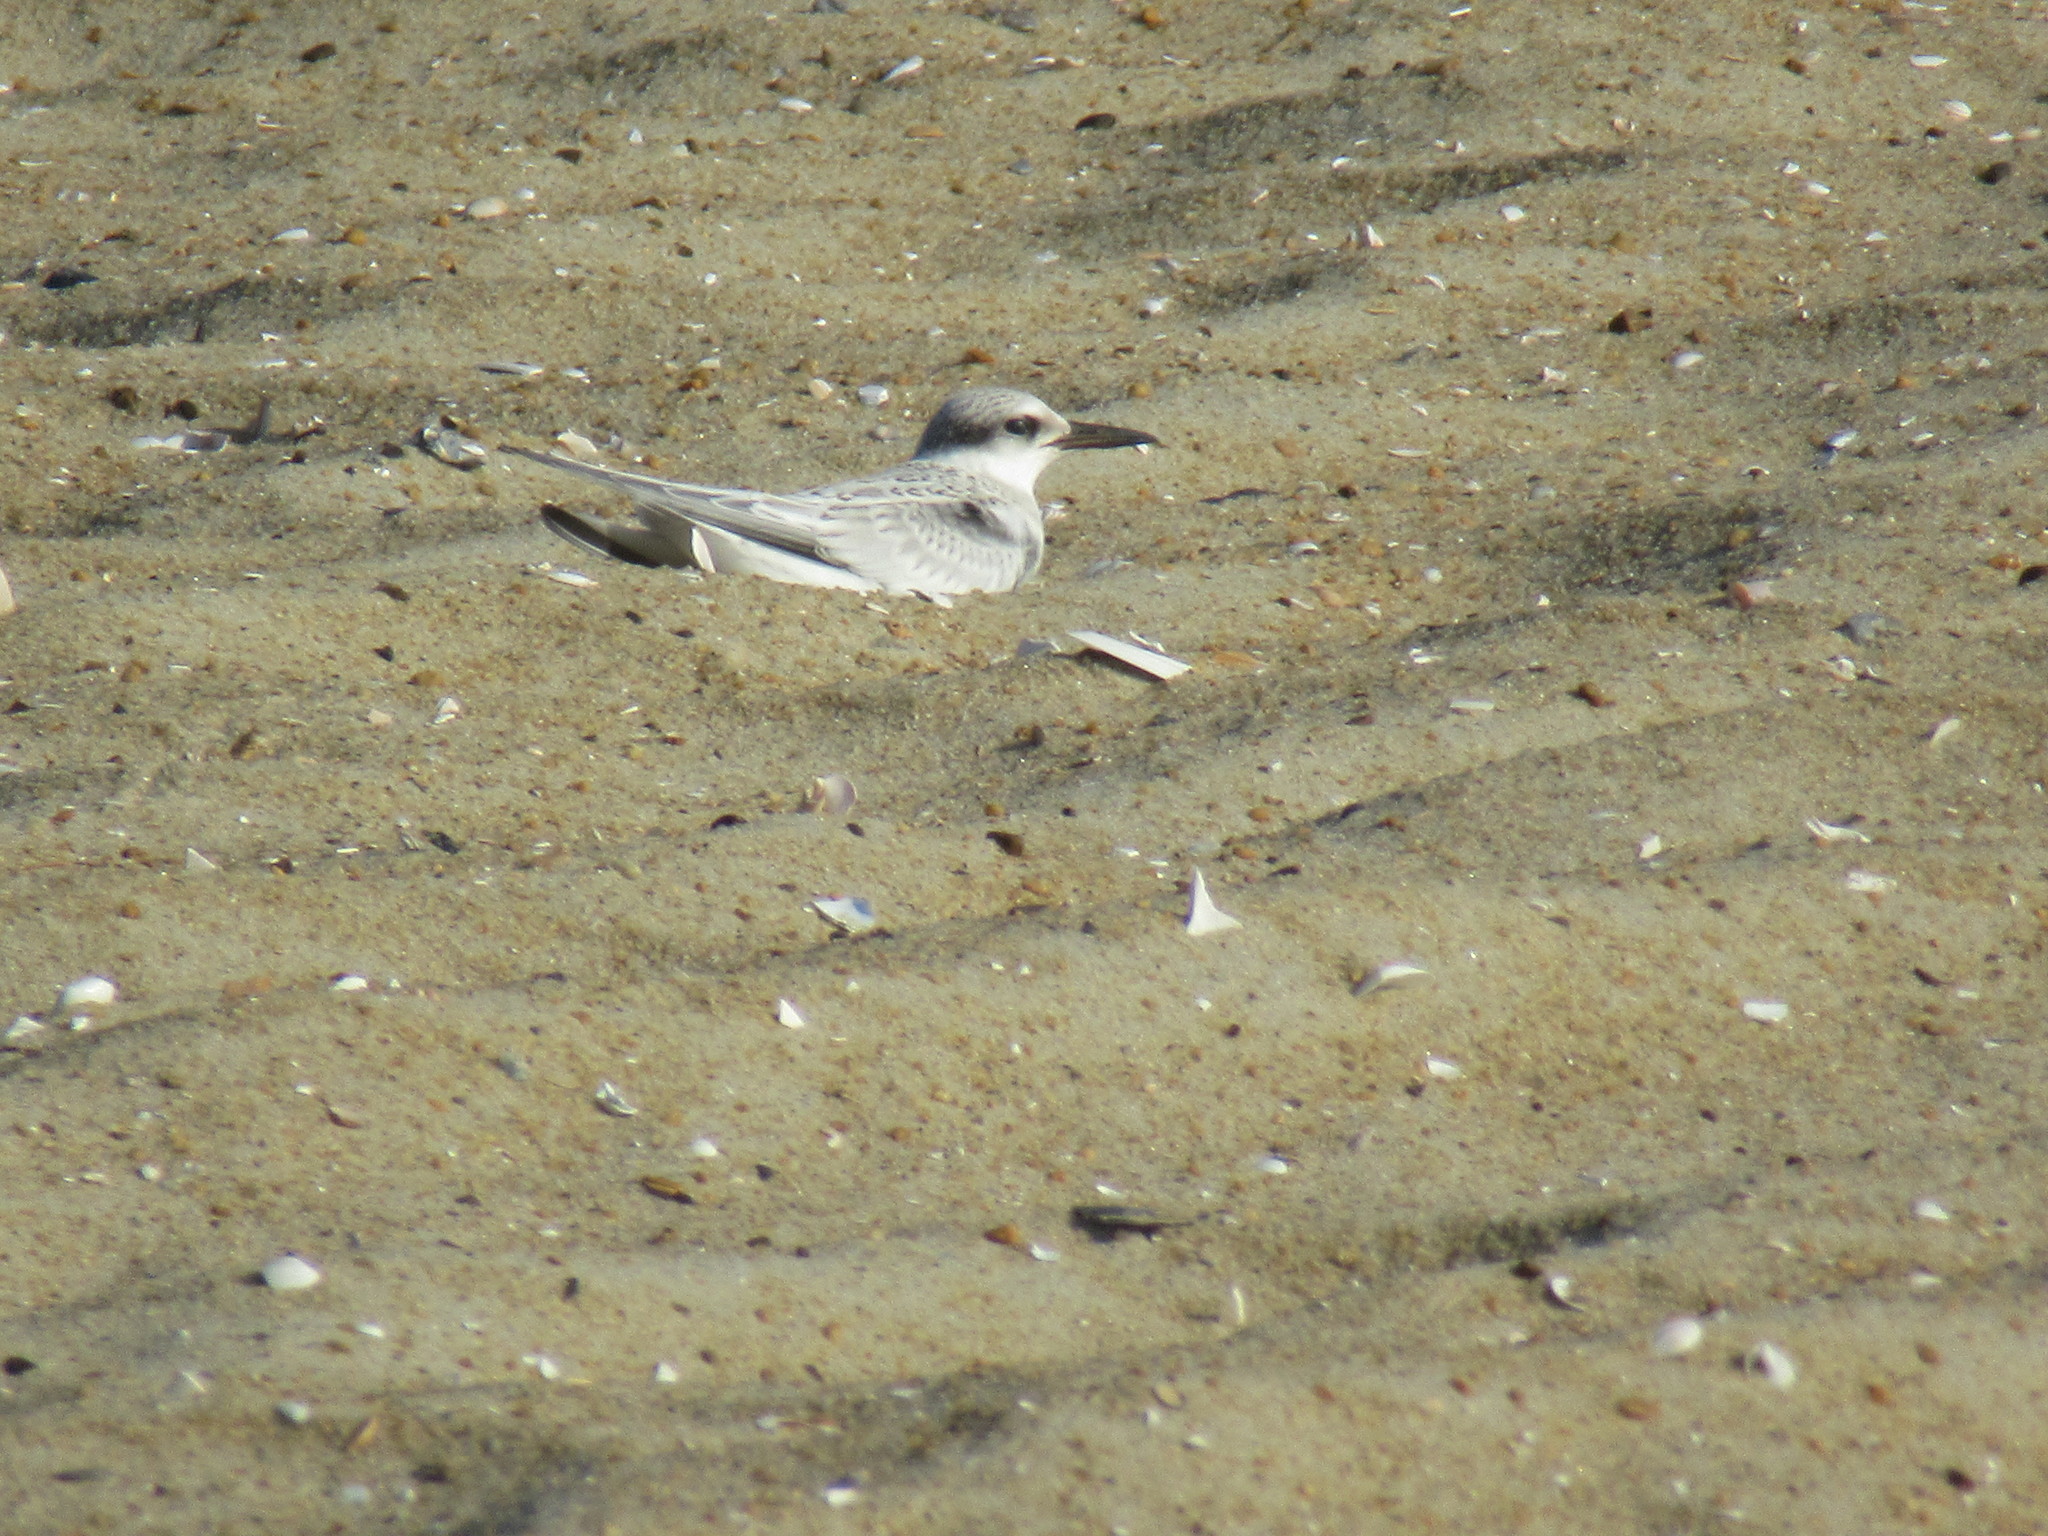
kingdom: Animalia
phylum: Chordata
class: Aves
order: Charadriiformes
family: Laridae
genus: Sternula
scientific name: Sternula antillarum
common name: Least tern
